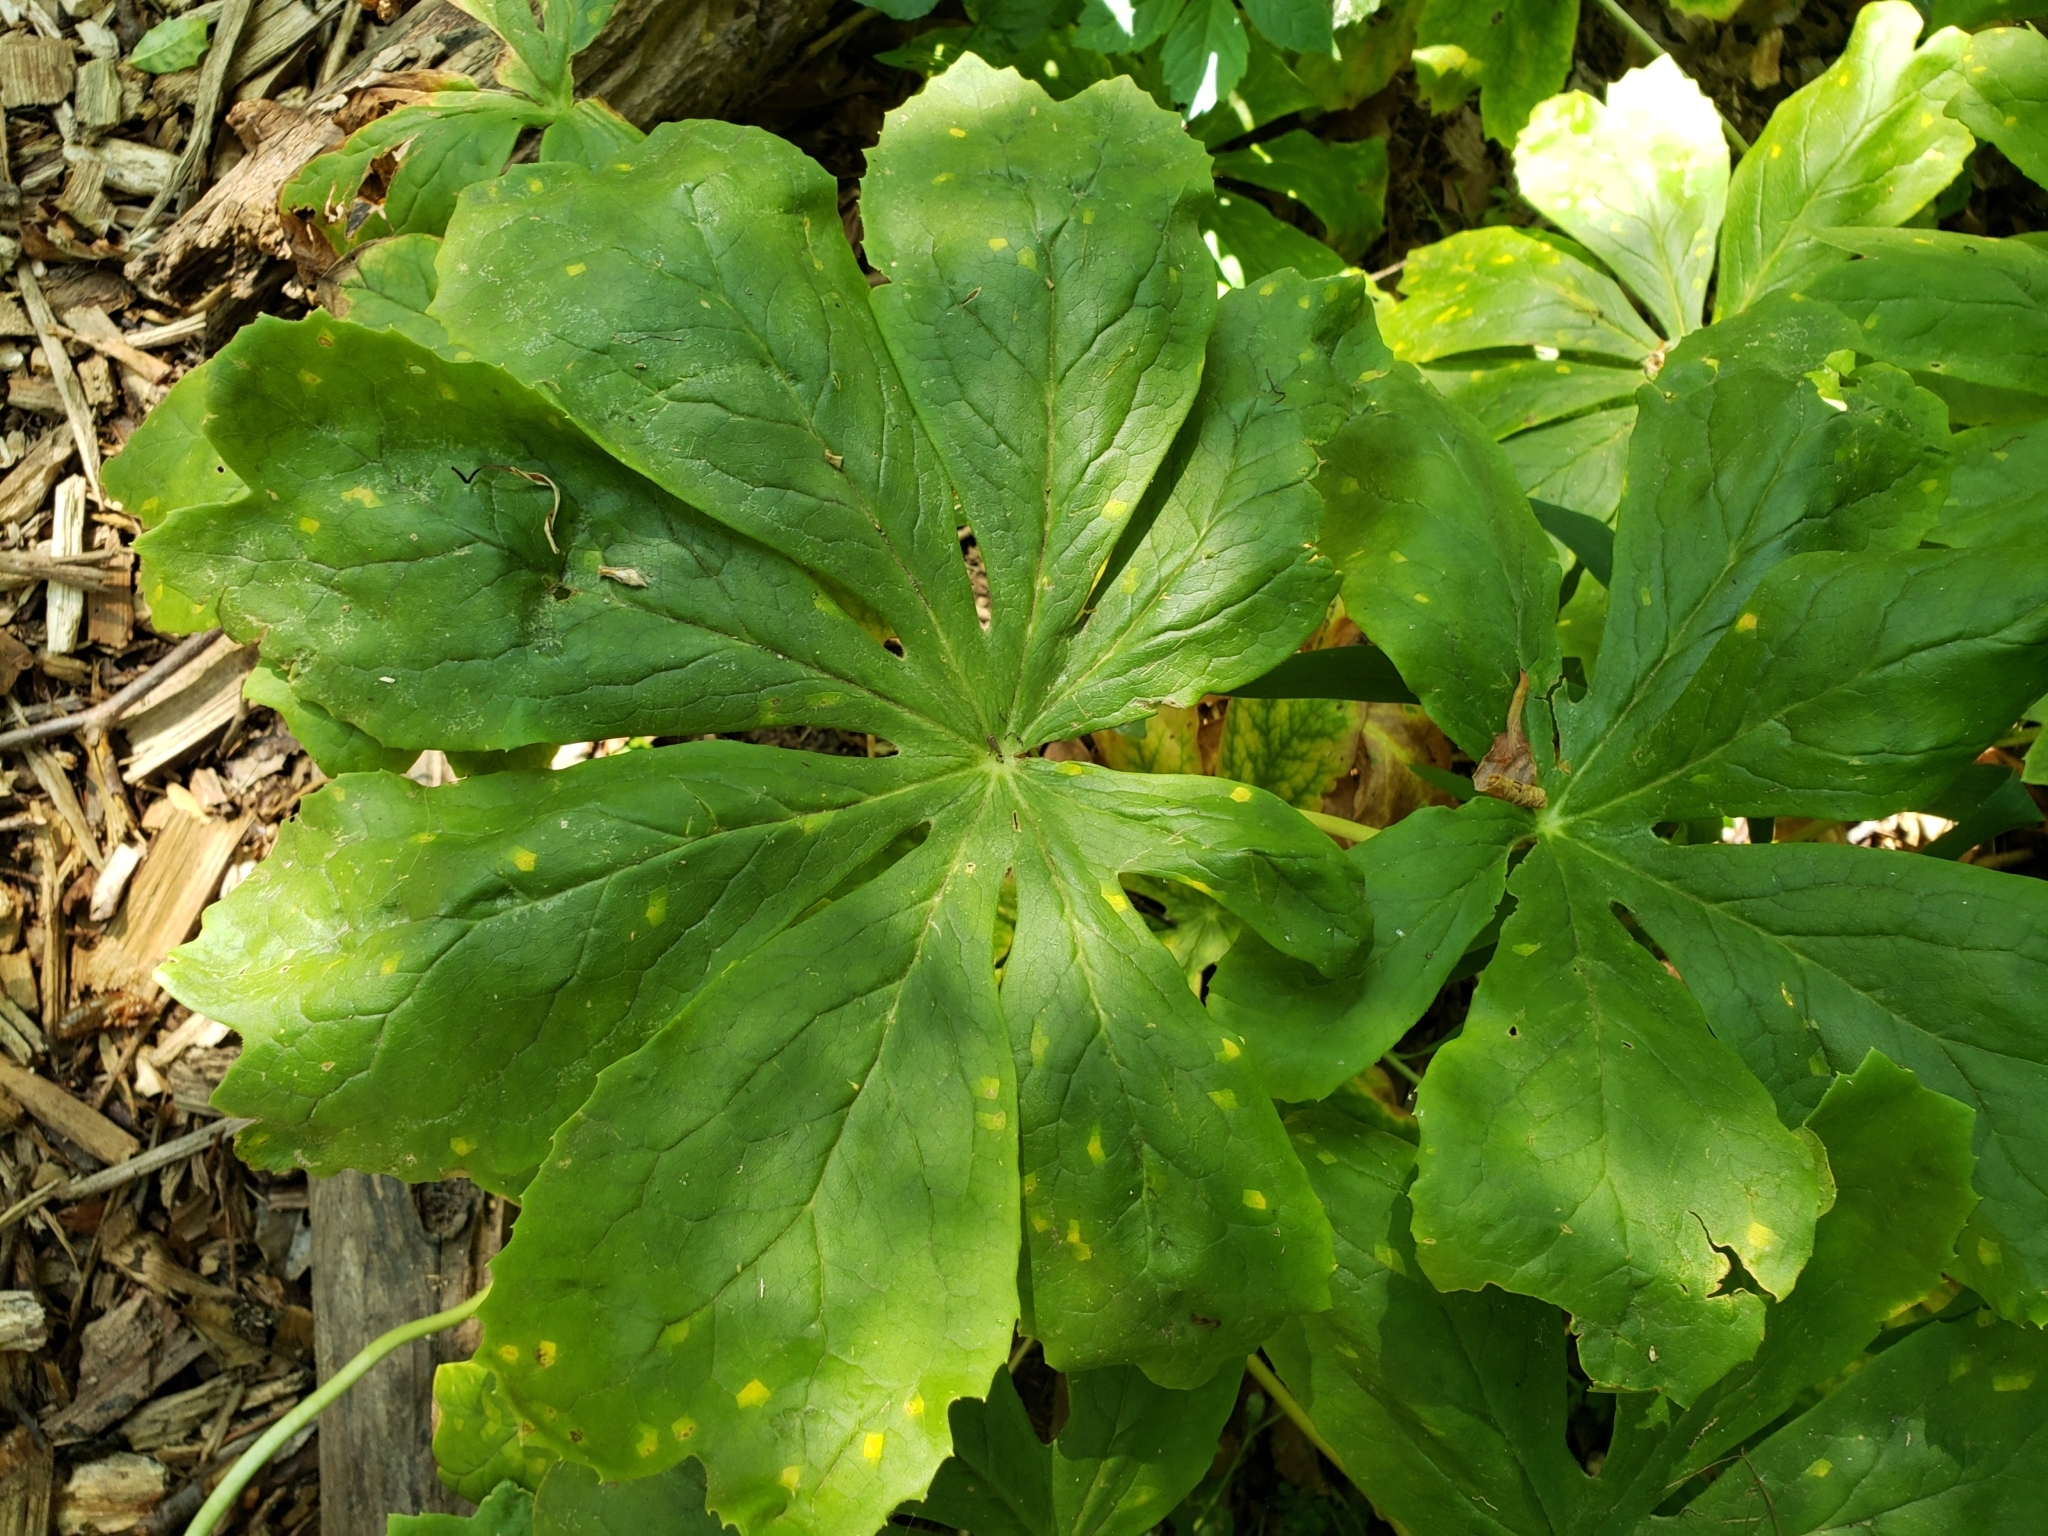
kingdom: Fungi
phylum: Basidiomycota
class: Pucciniomycetes
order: Pucciniales
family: Pucciniaceae
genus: Puccinia
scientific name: Puccinia podophylli
